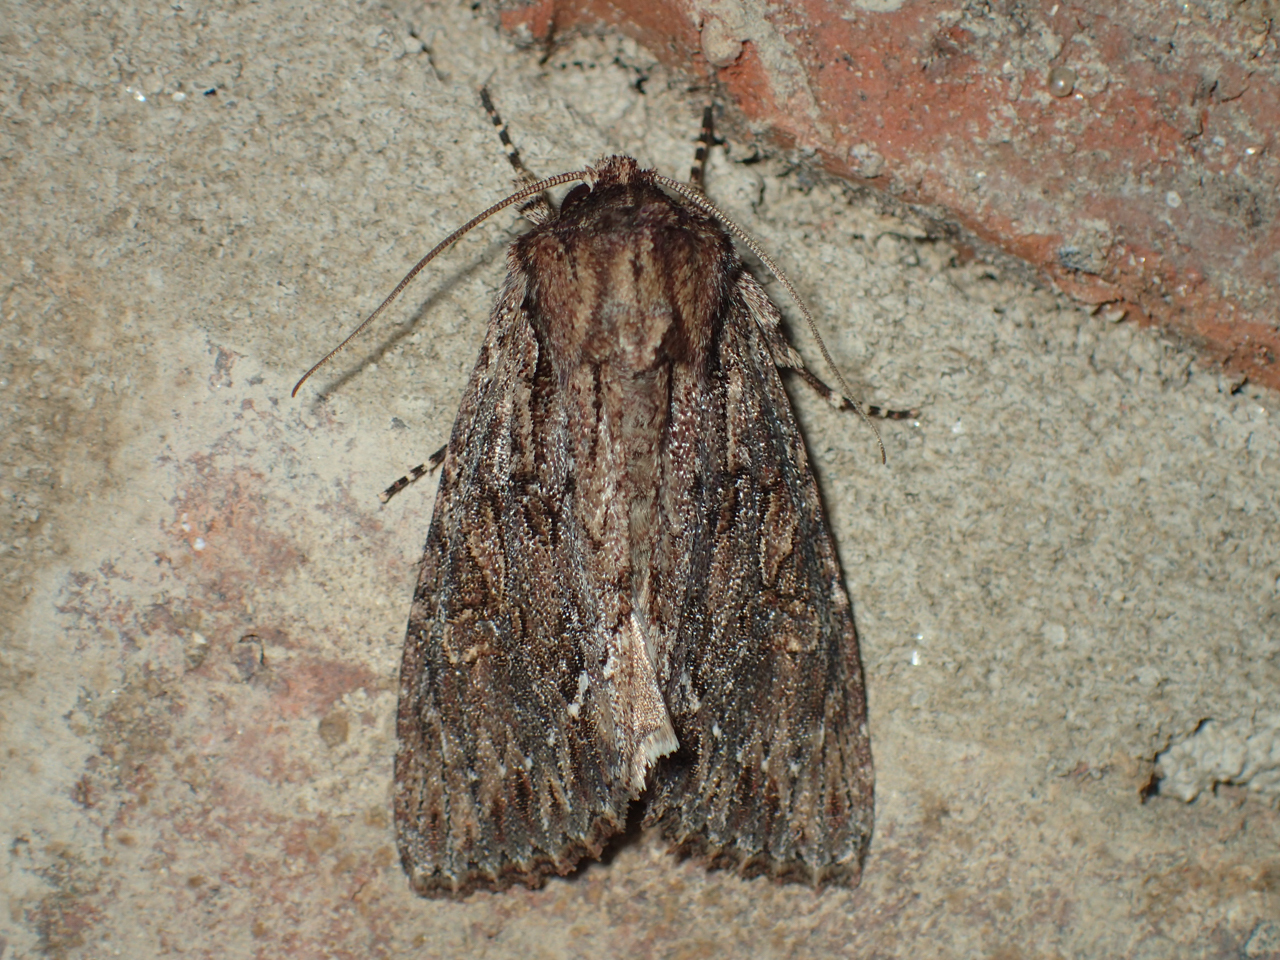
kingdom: Animalia
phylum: Arthropoda
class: Insecta
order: Lepidoptera
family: Noctuidae
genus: Achatia
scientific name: Achatia confusa
